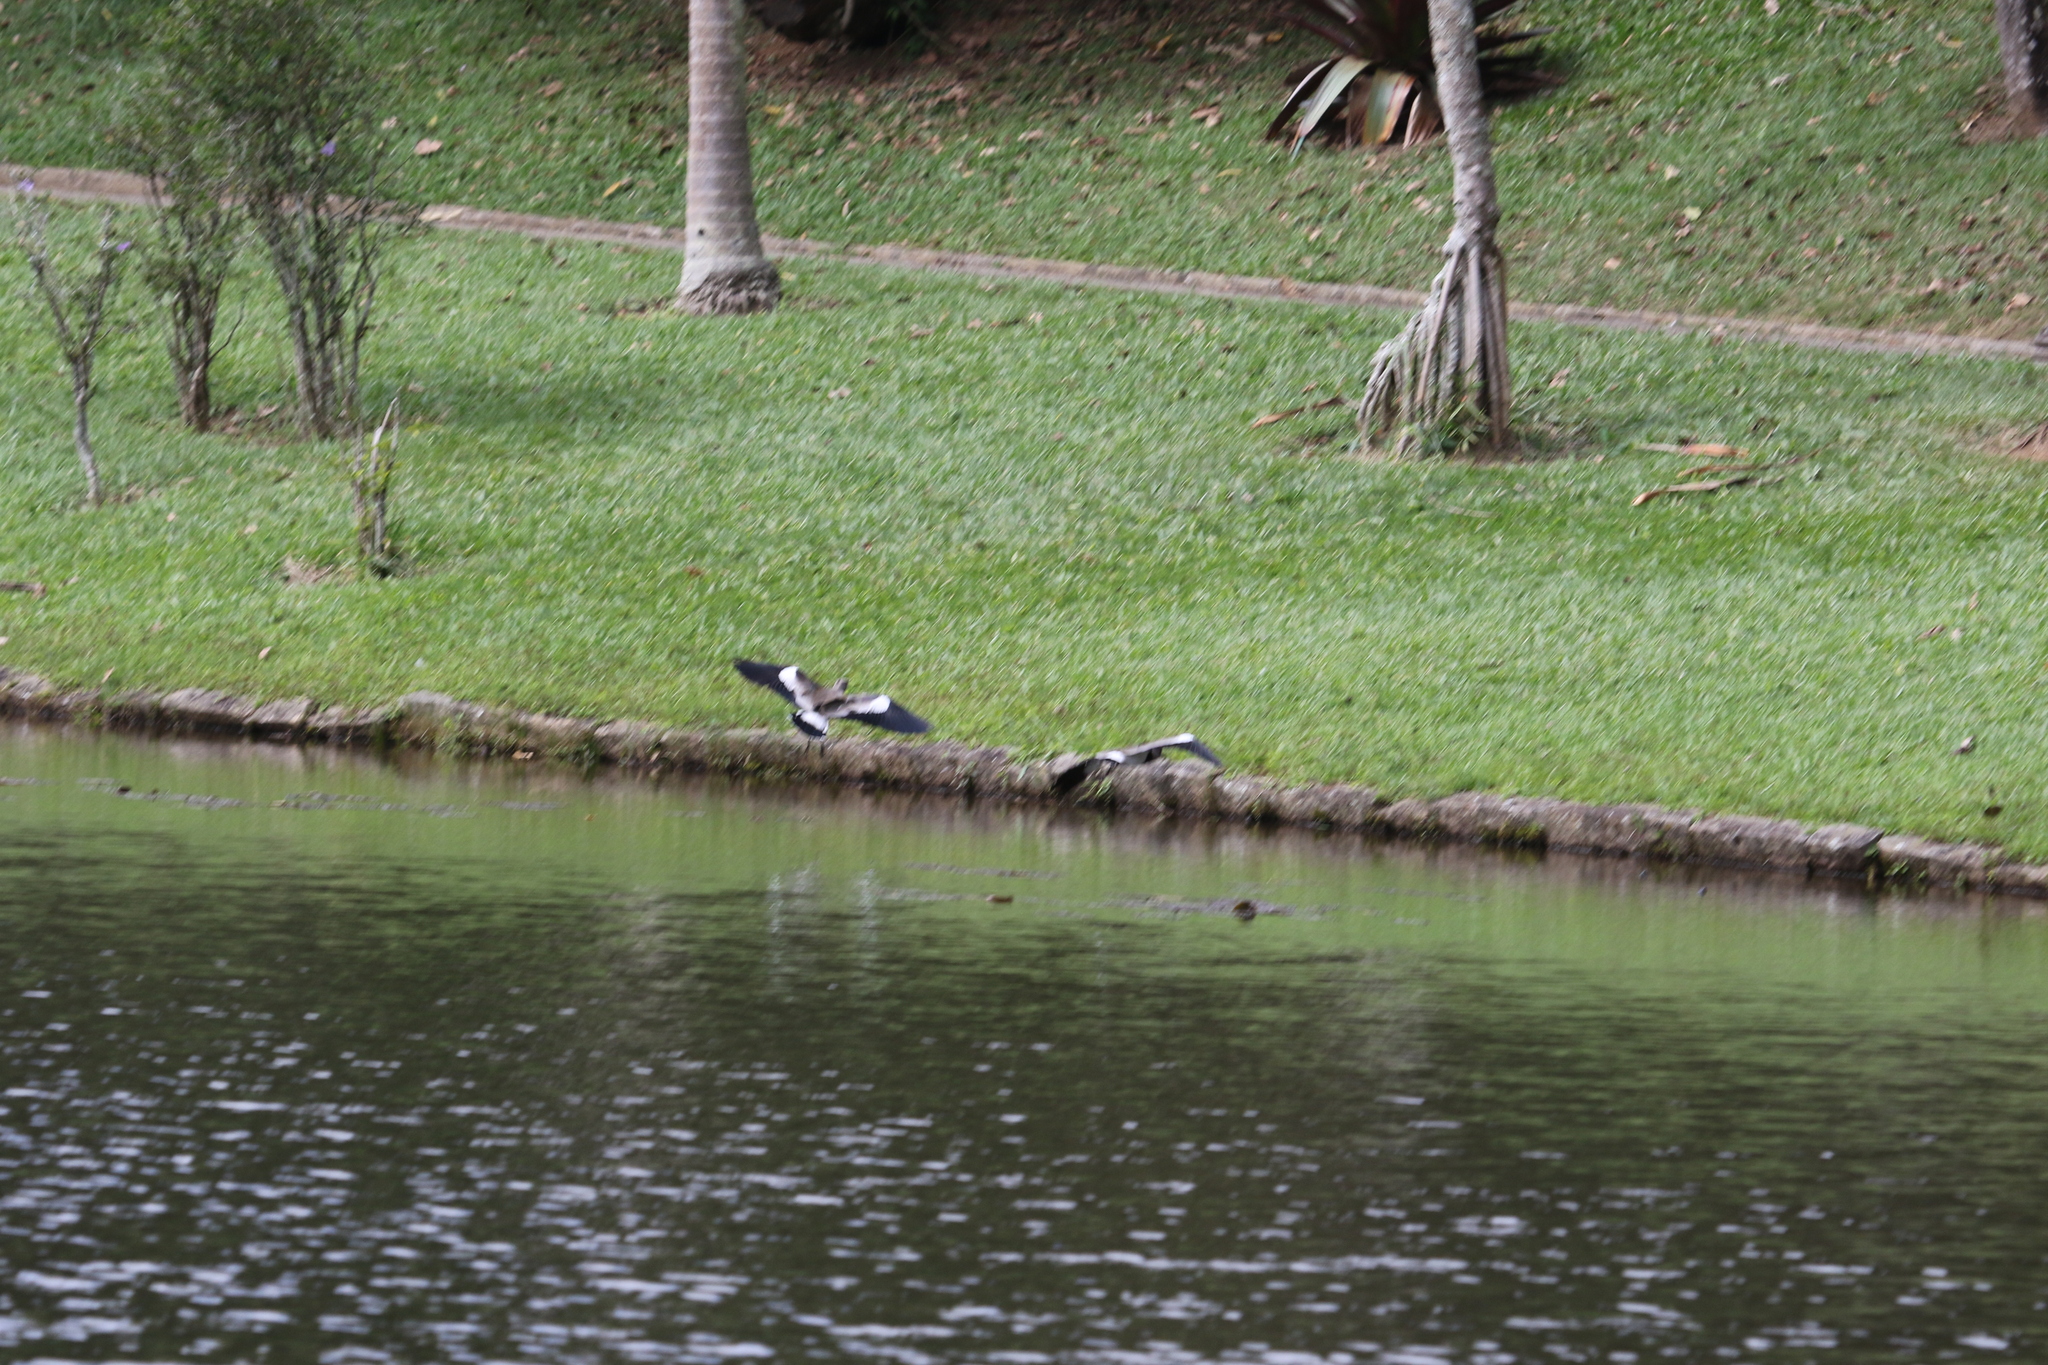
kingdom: Animalia
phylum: Chordata
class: Aves
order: Charadriiformes
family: Charadriidae
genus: Vanellus
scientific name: Vanellus chilensis
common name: Southern lapwing
